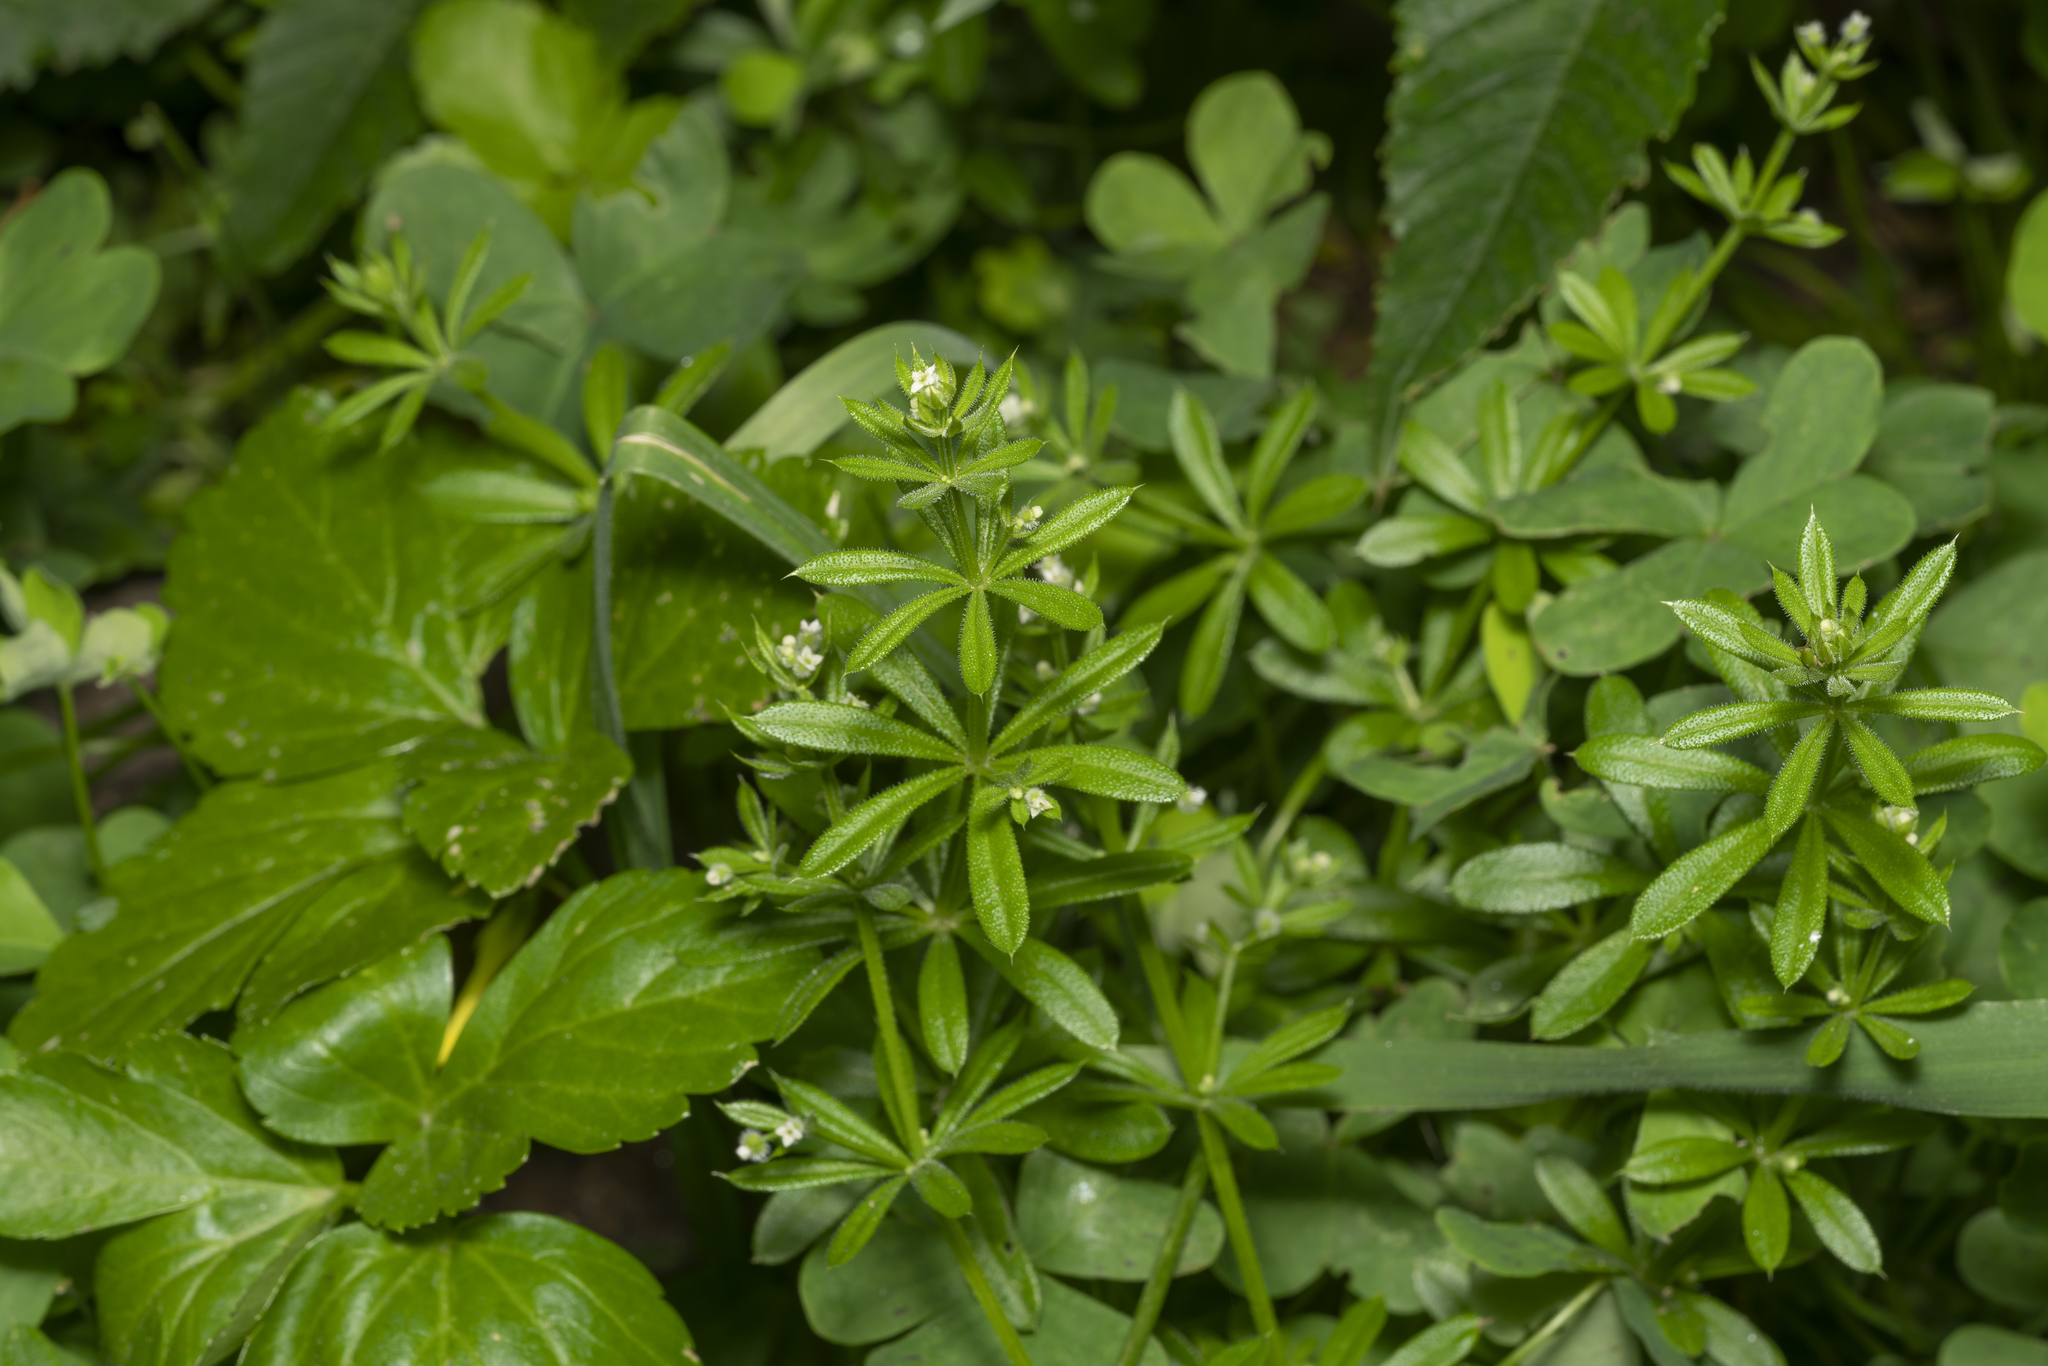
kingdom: Plantae
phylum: Tracheophyta
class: Magnoliopsida
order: Gentianales
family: Rubiaceae
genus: Galium
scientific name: Galium aparine
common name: Cleavers
